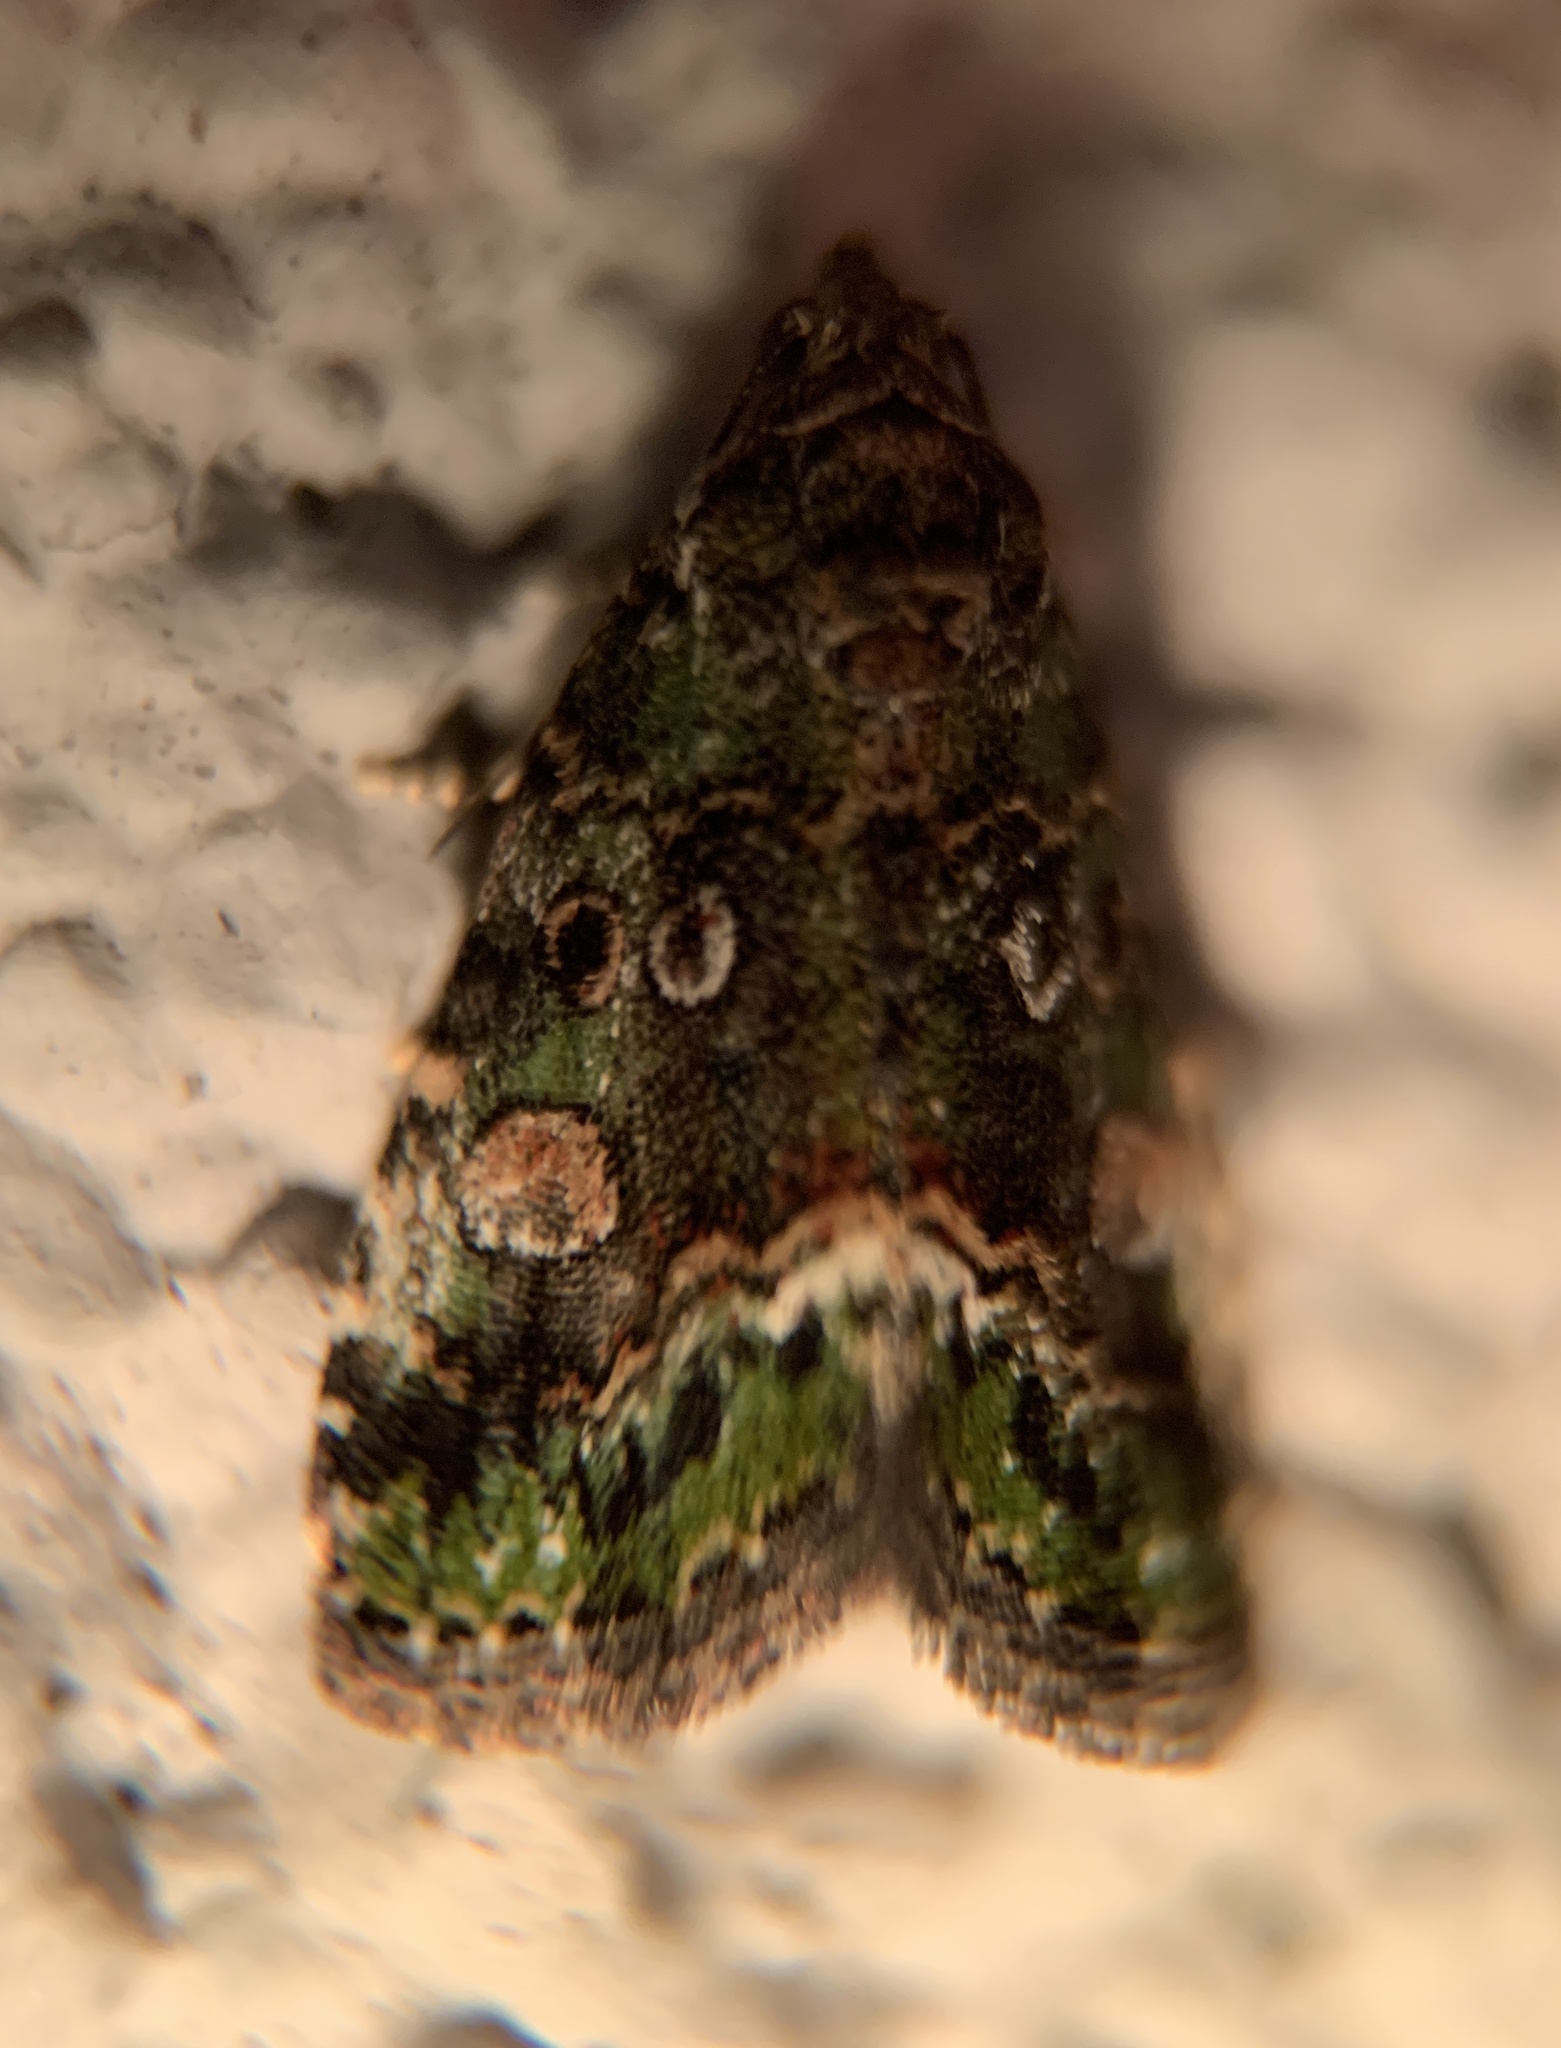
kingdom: Animalia
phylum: Arthropoda
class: Insecta
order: Lepidoptera
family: Noctuidae
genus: Lithacodia
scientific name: Lithacodia musta
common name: Small mossy glyph
